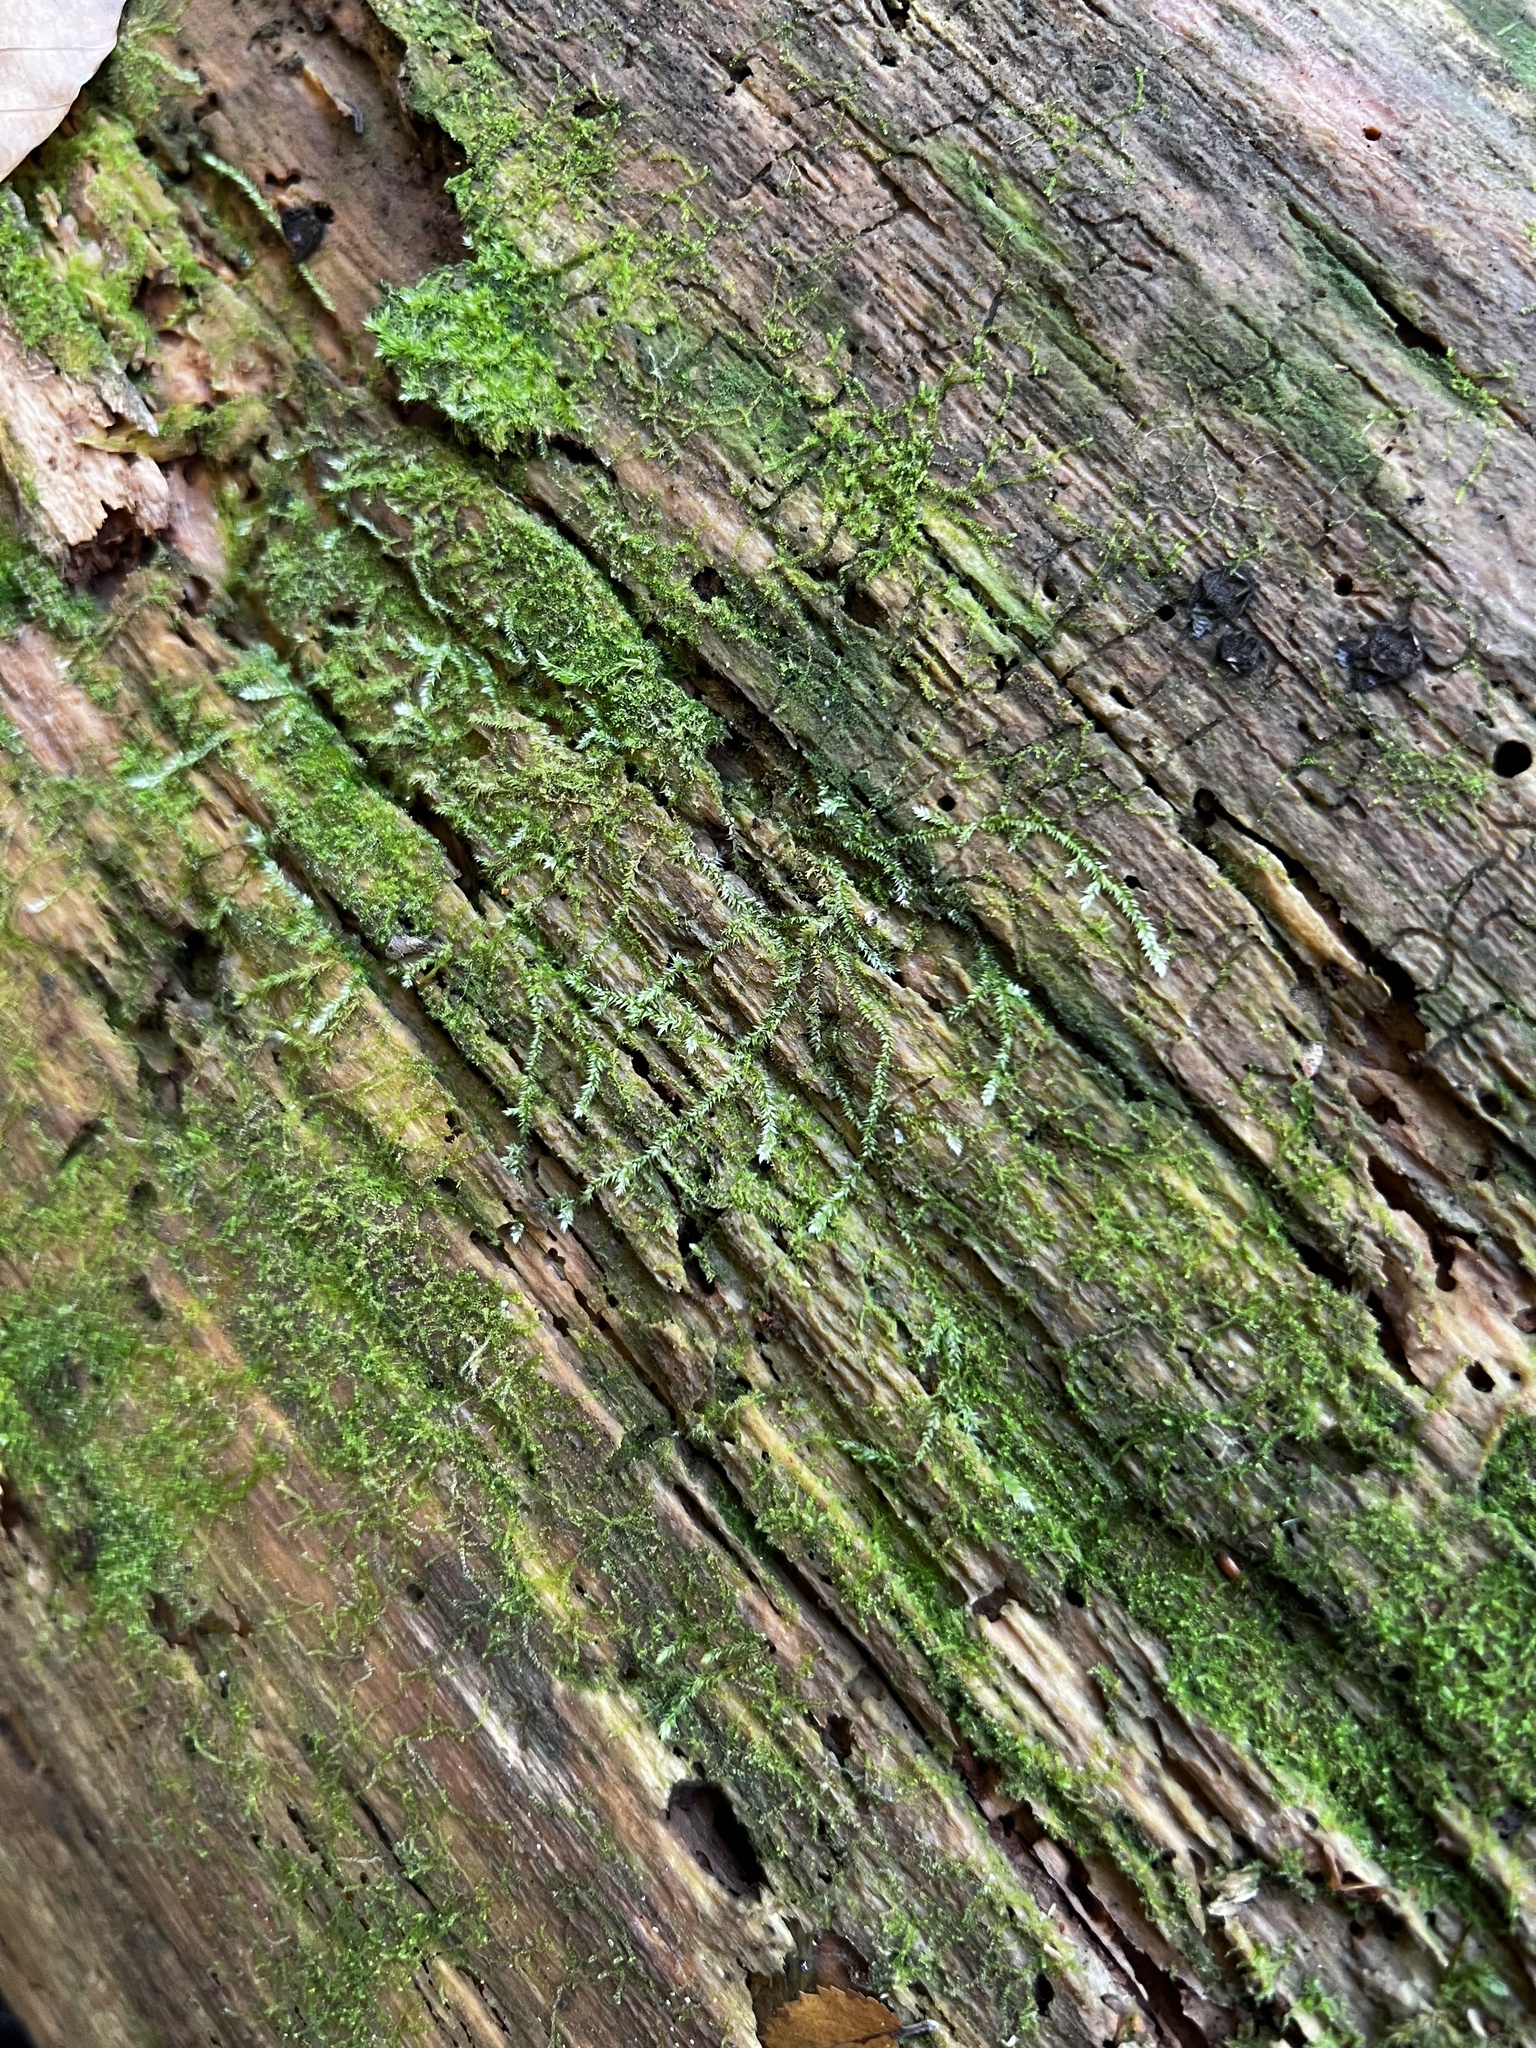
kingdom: Plantae
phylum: Bryophyta
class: Bryopsida
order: Hypnales
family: Amblystegiaceae
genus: Leptodictyum
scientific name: Leptodictyum riparium
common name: Riparian feather moss
